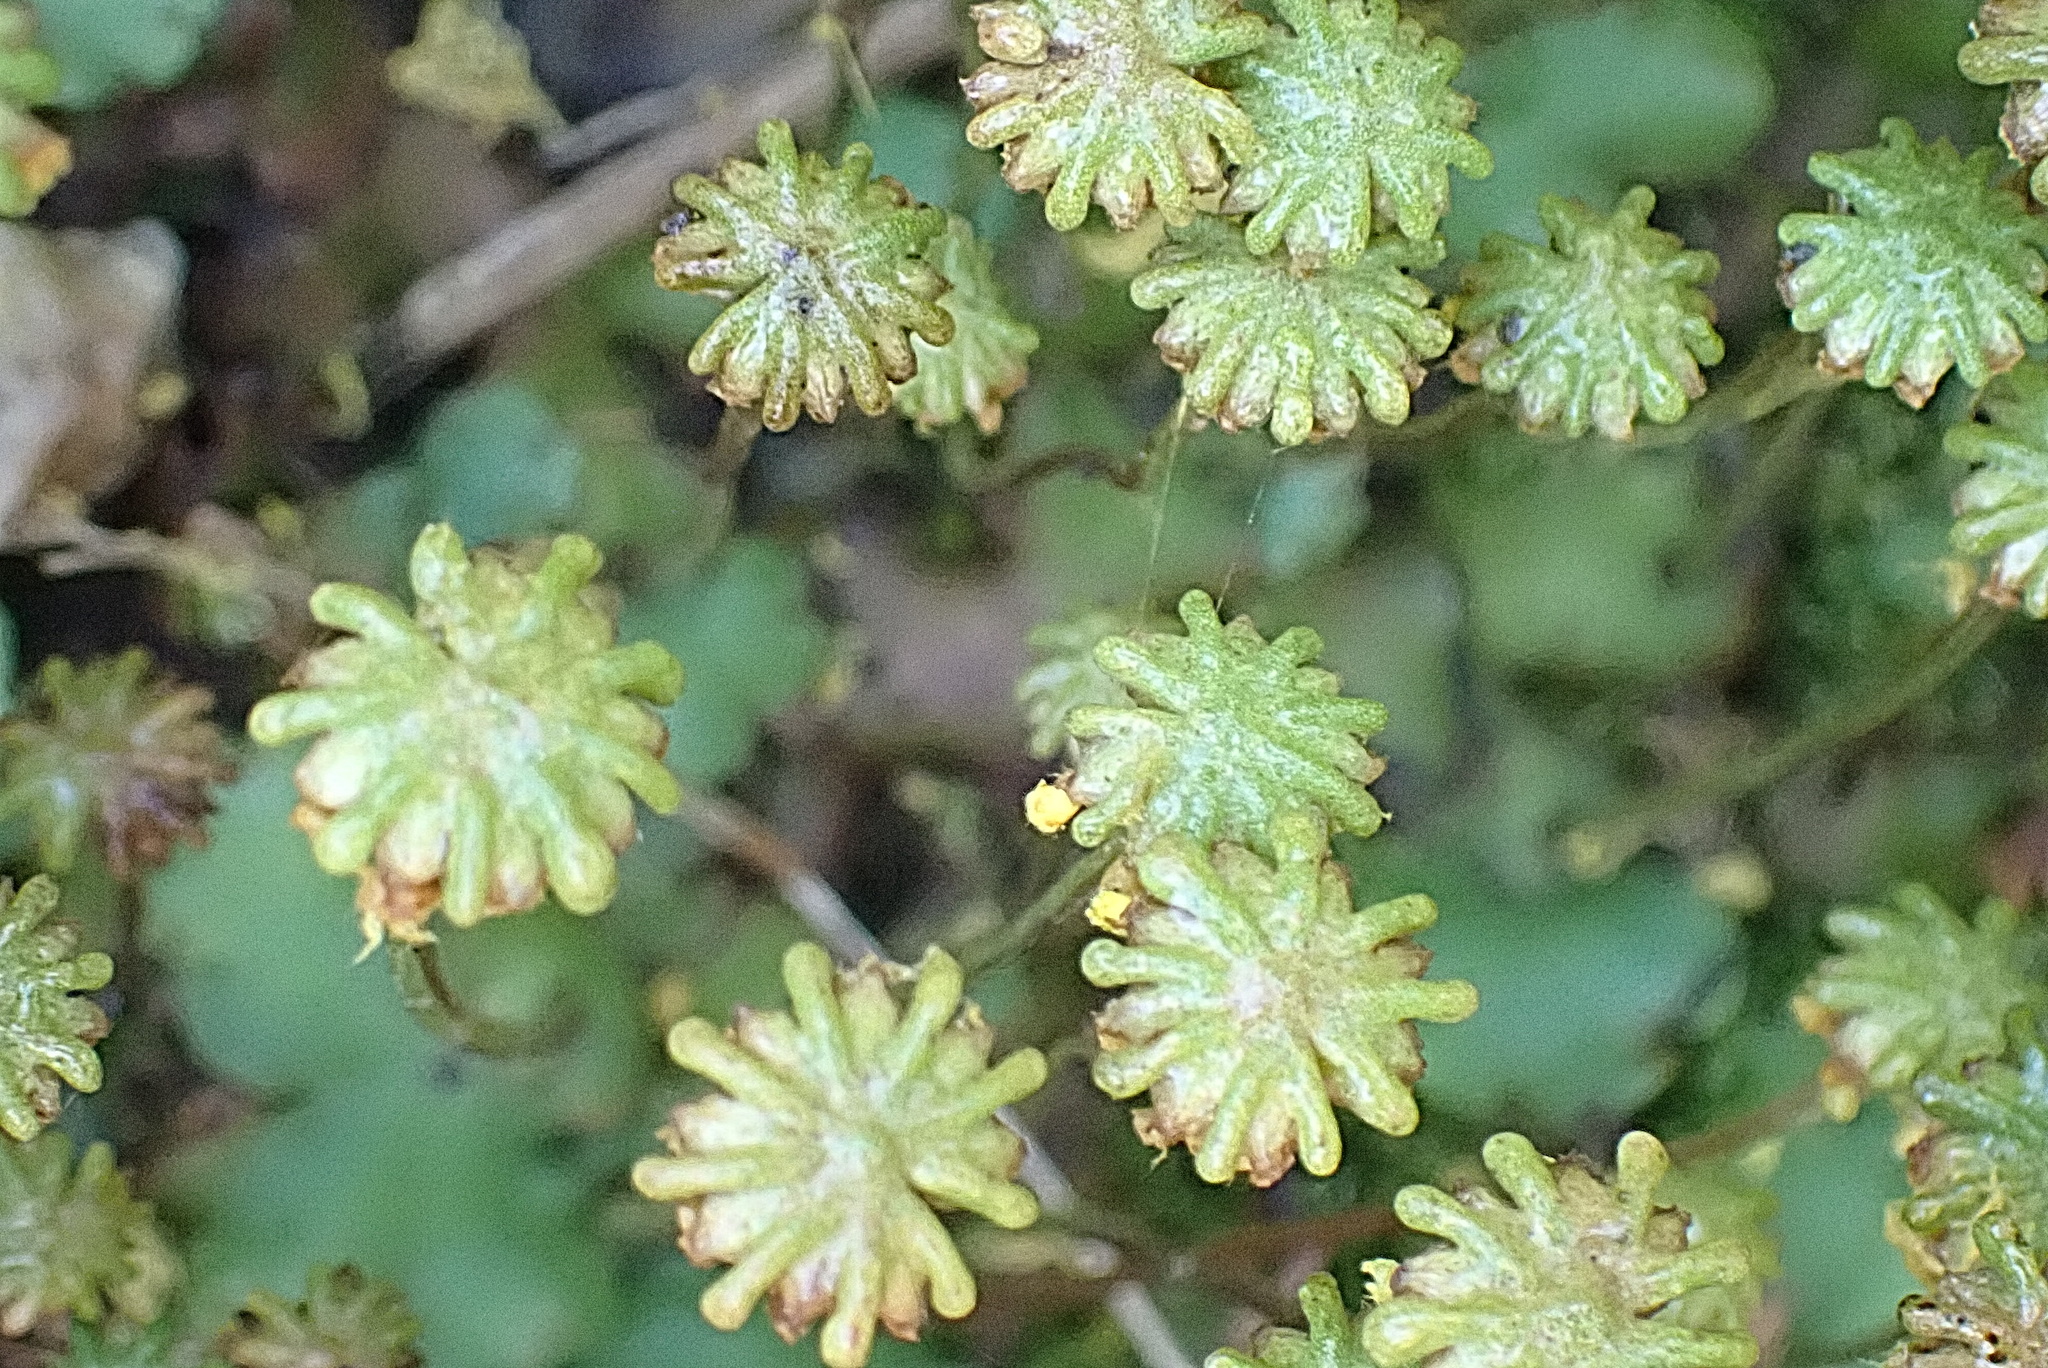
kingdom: Plantae
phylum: Marchantiophyta
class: Marchantiopsida
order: Marchantiales
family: Marchantiaceae
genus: Marchantia
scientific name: Marchantia berteroana
